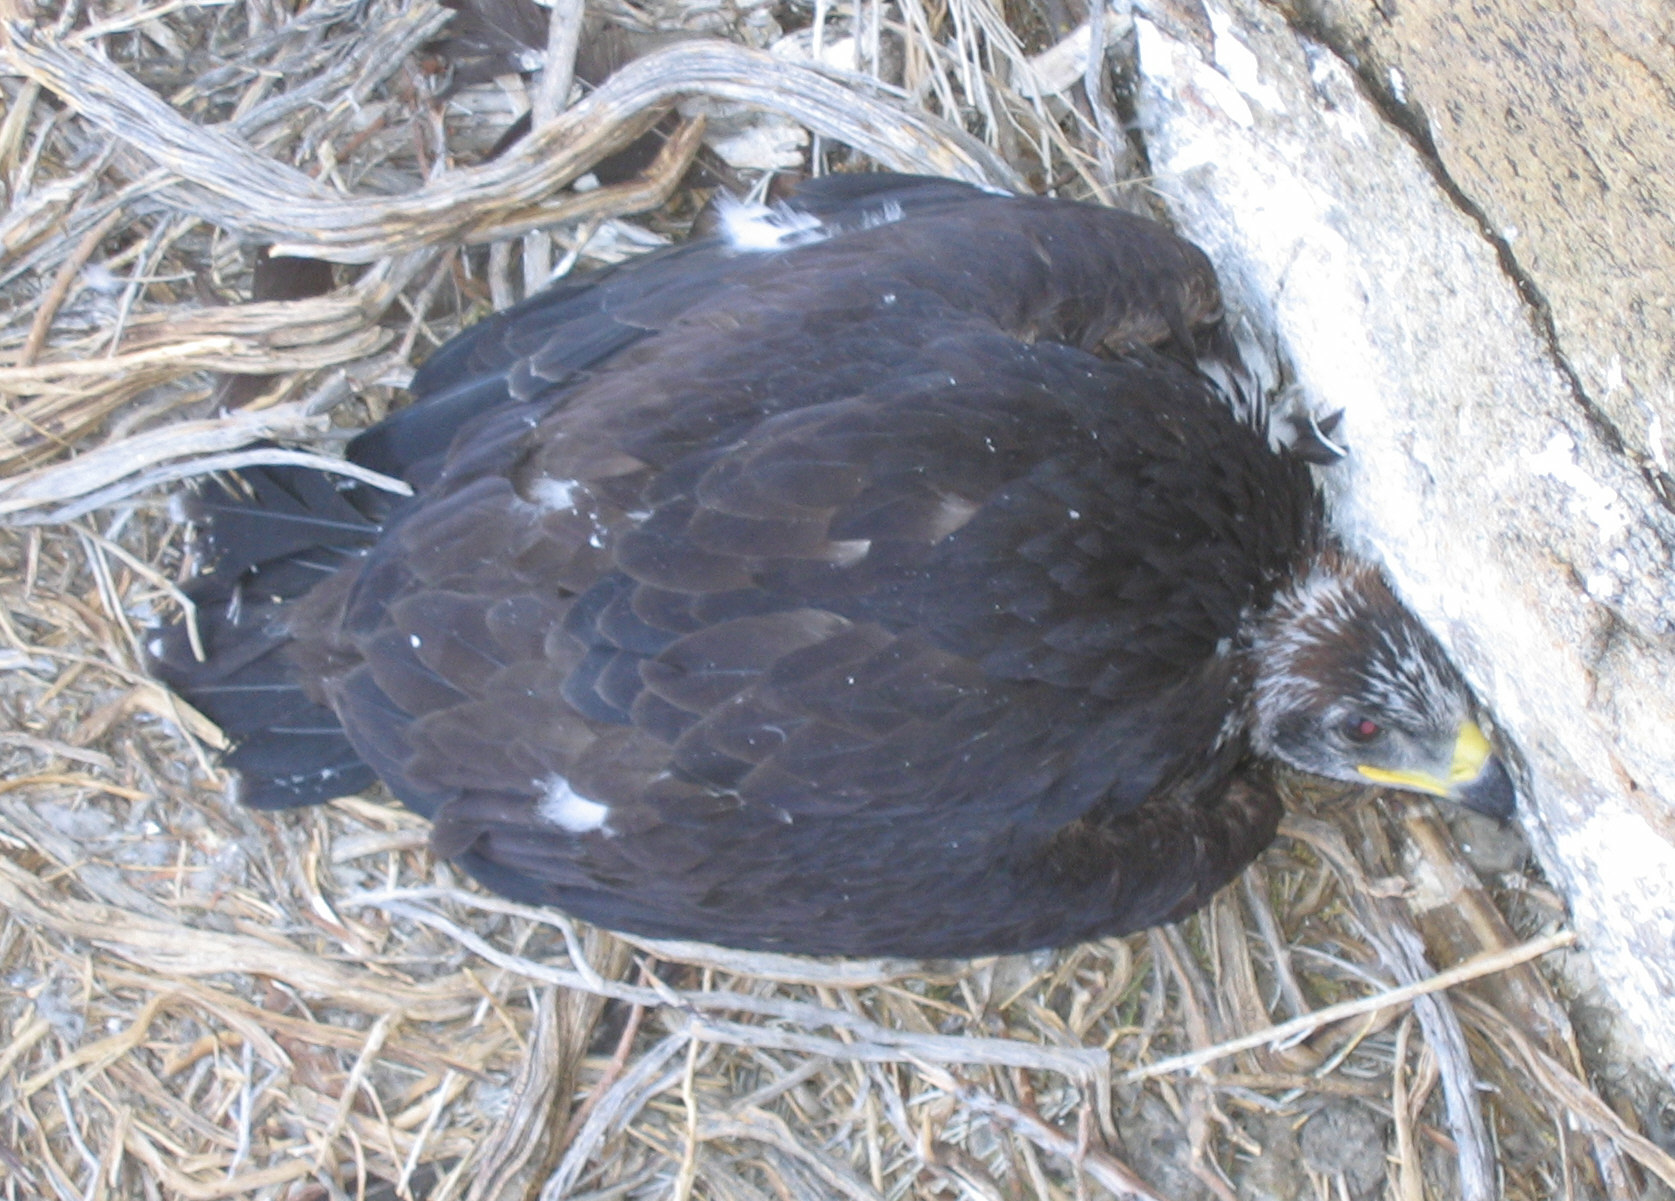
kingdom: Animalia
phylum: Chordata
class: Aves
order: Accipitriformes
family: Accipitridae
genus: Aquila
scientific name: Aquila chrysaetos
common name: Golden eagle
